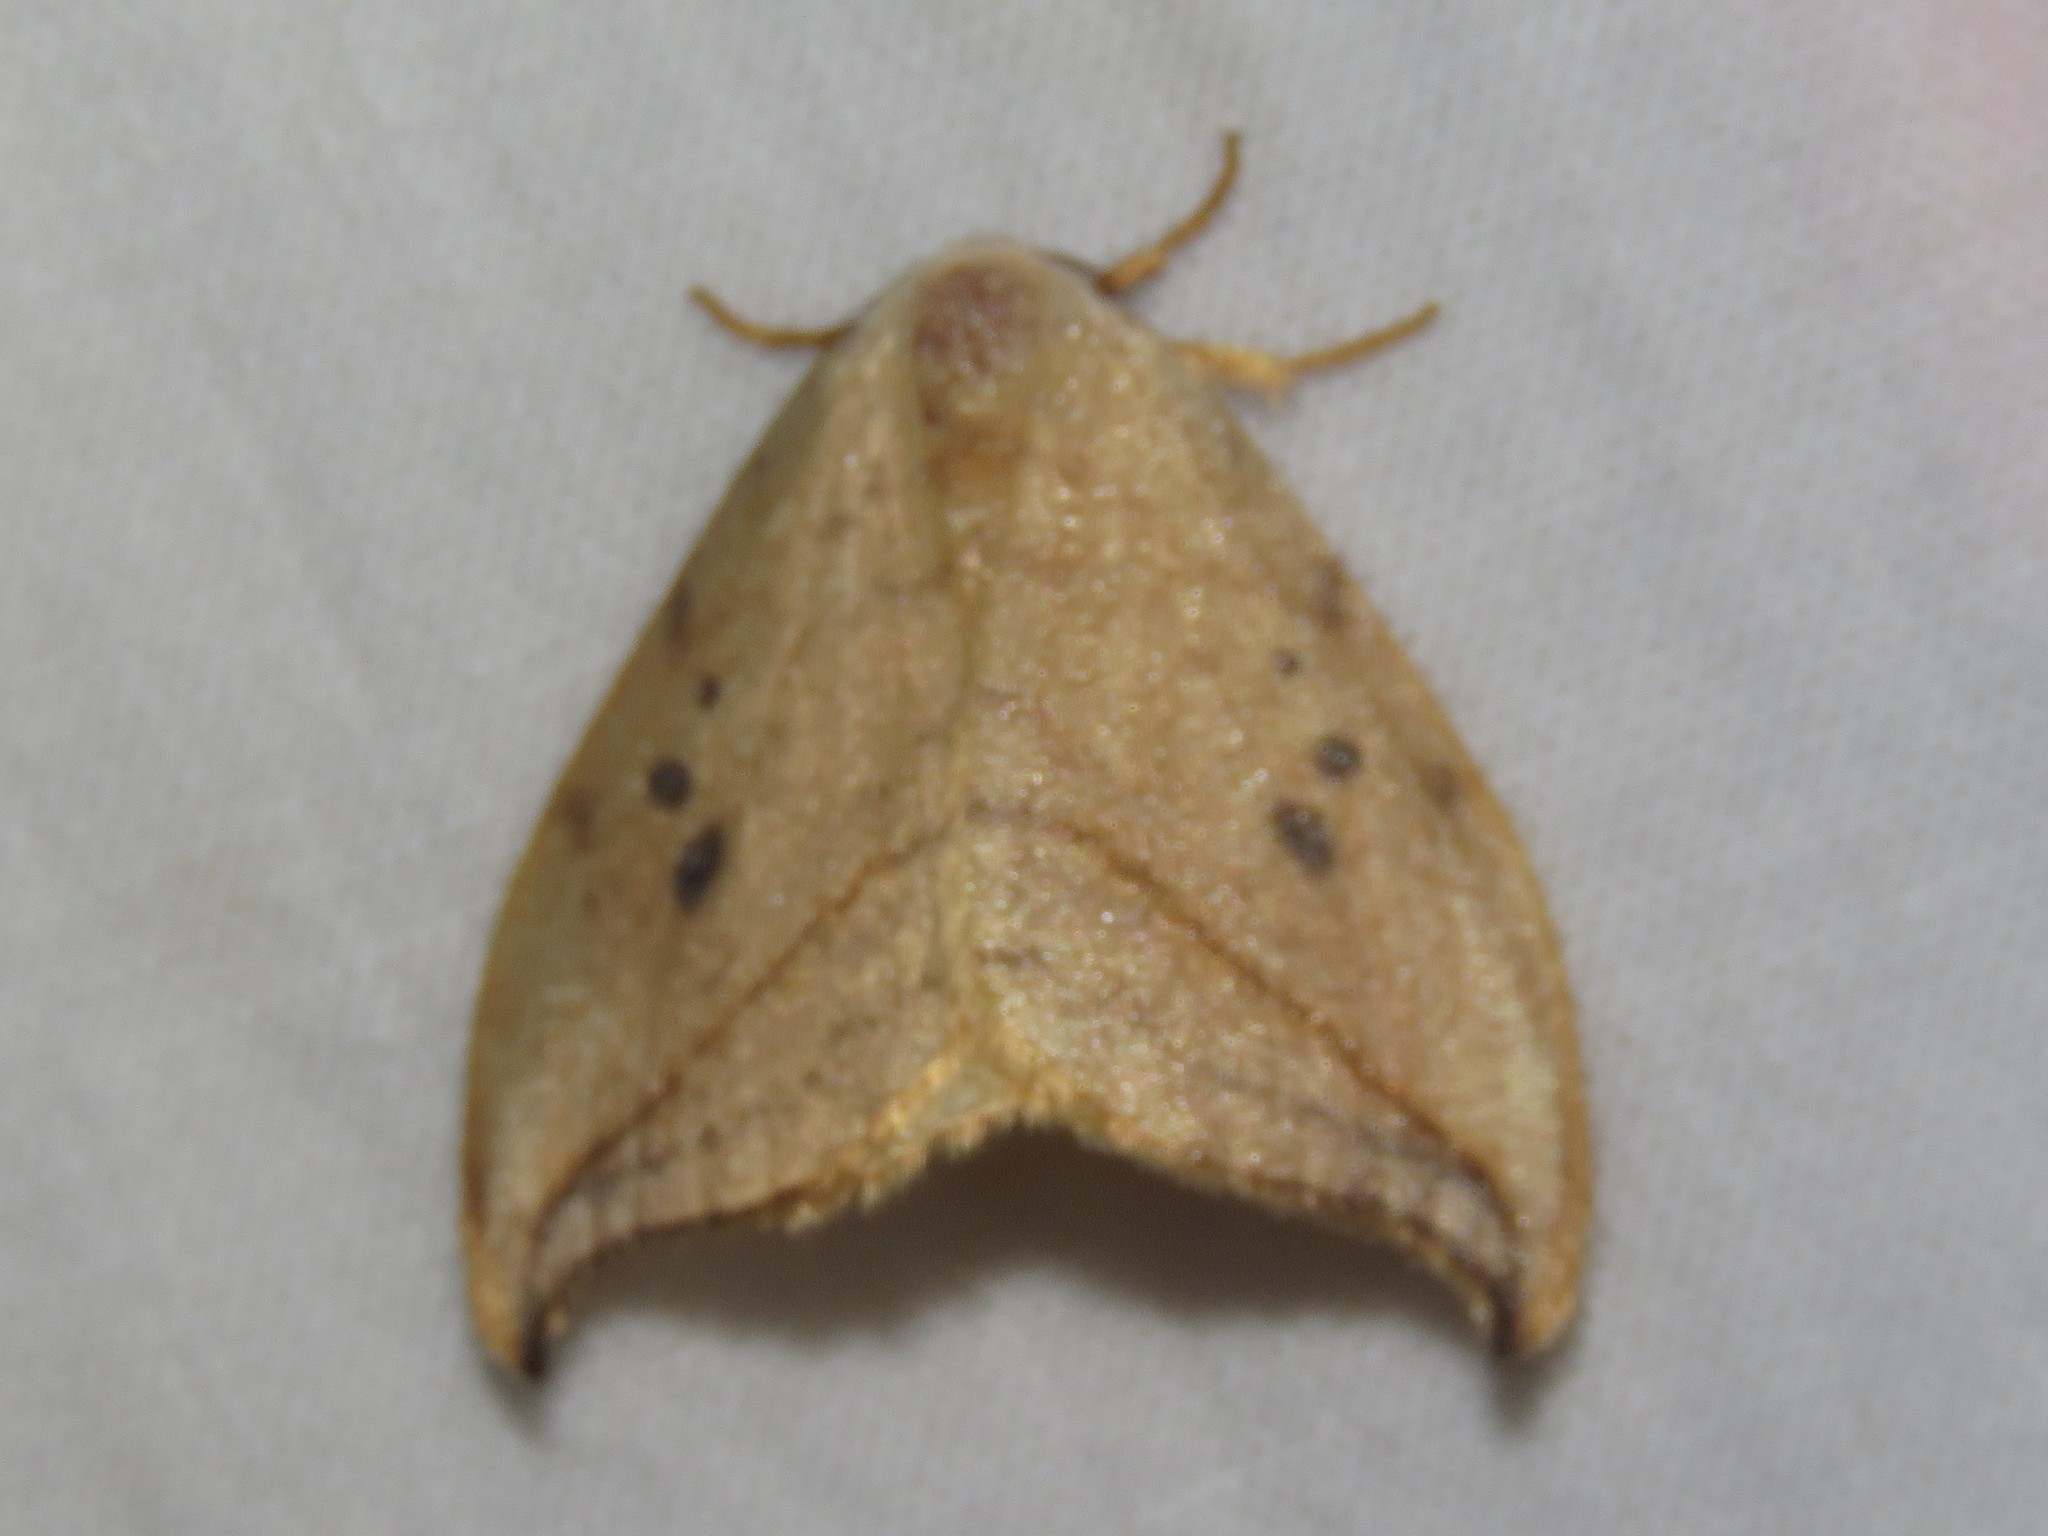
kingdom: Animalia
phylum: Arthropoda
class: Insecta
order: Lepidoptera
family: Drepanidae
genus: Drepana
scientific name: Drepana arcuata
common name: Arched hooktip moth
